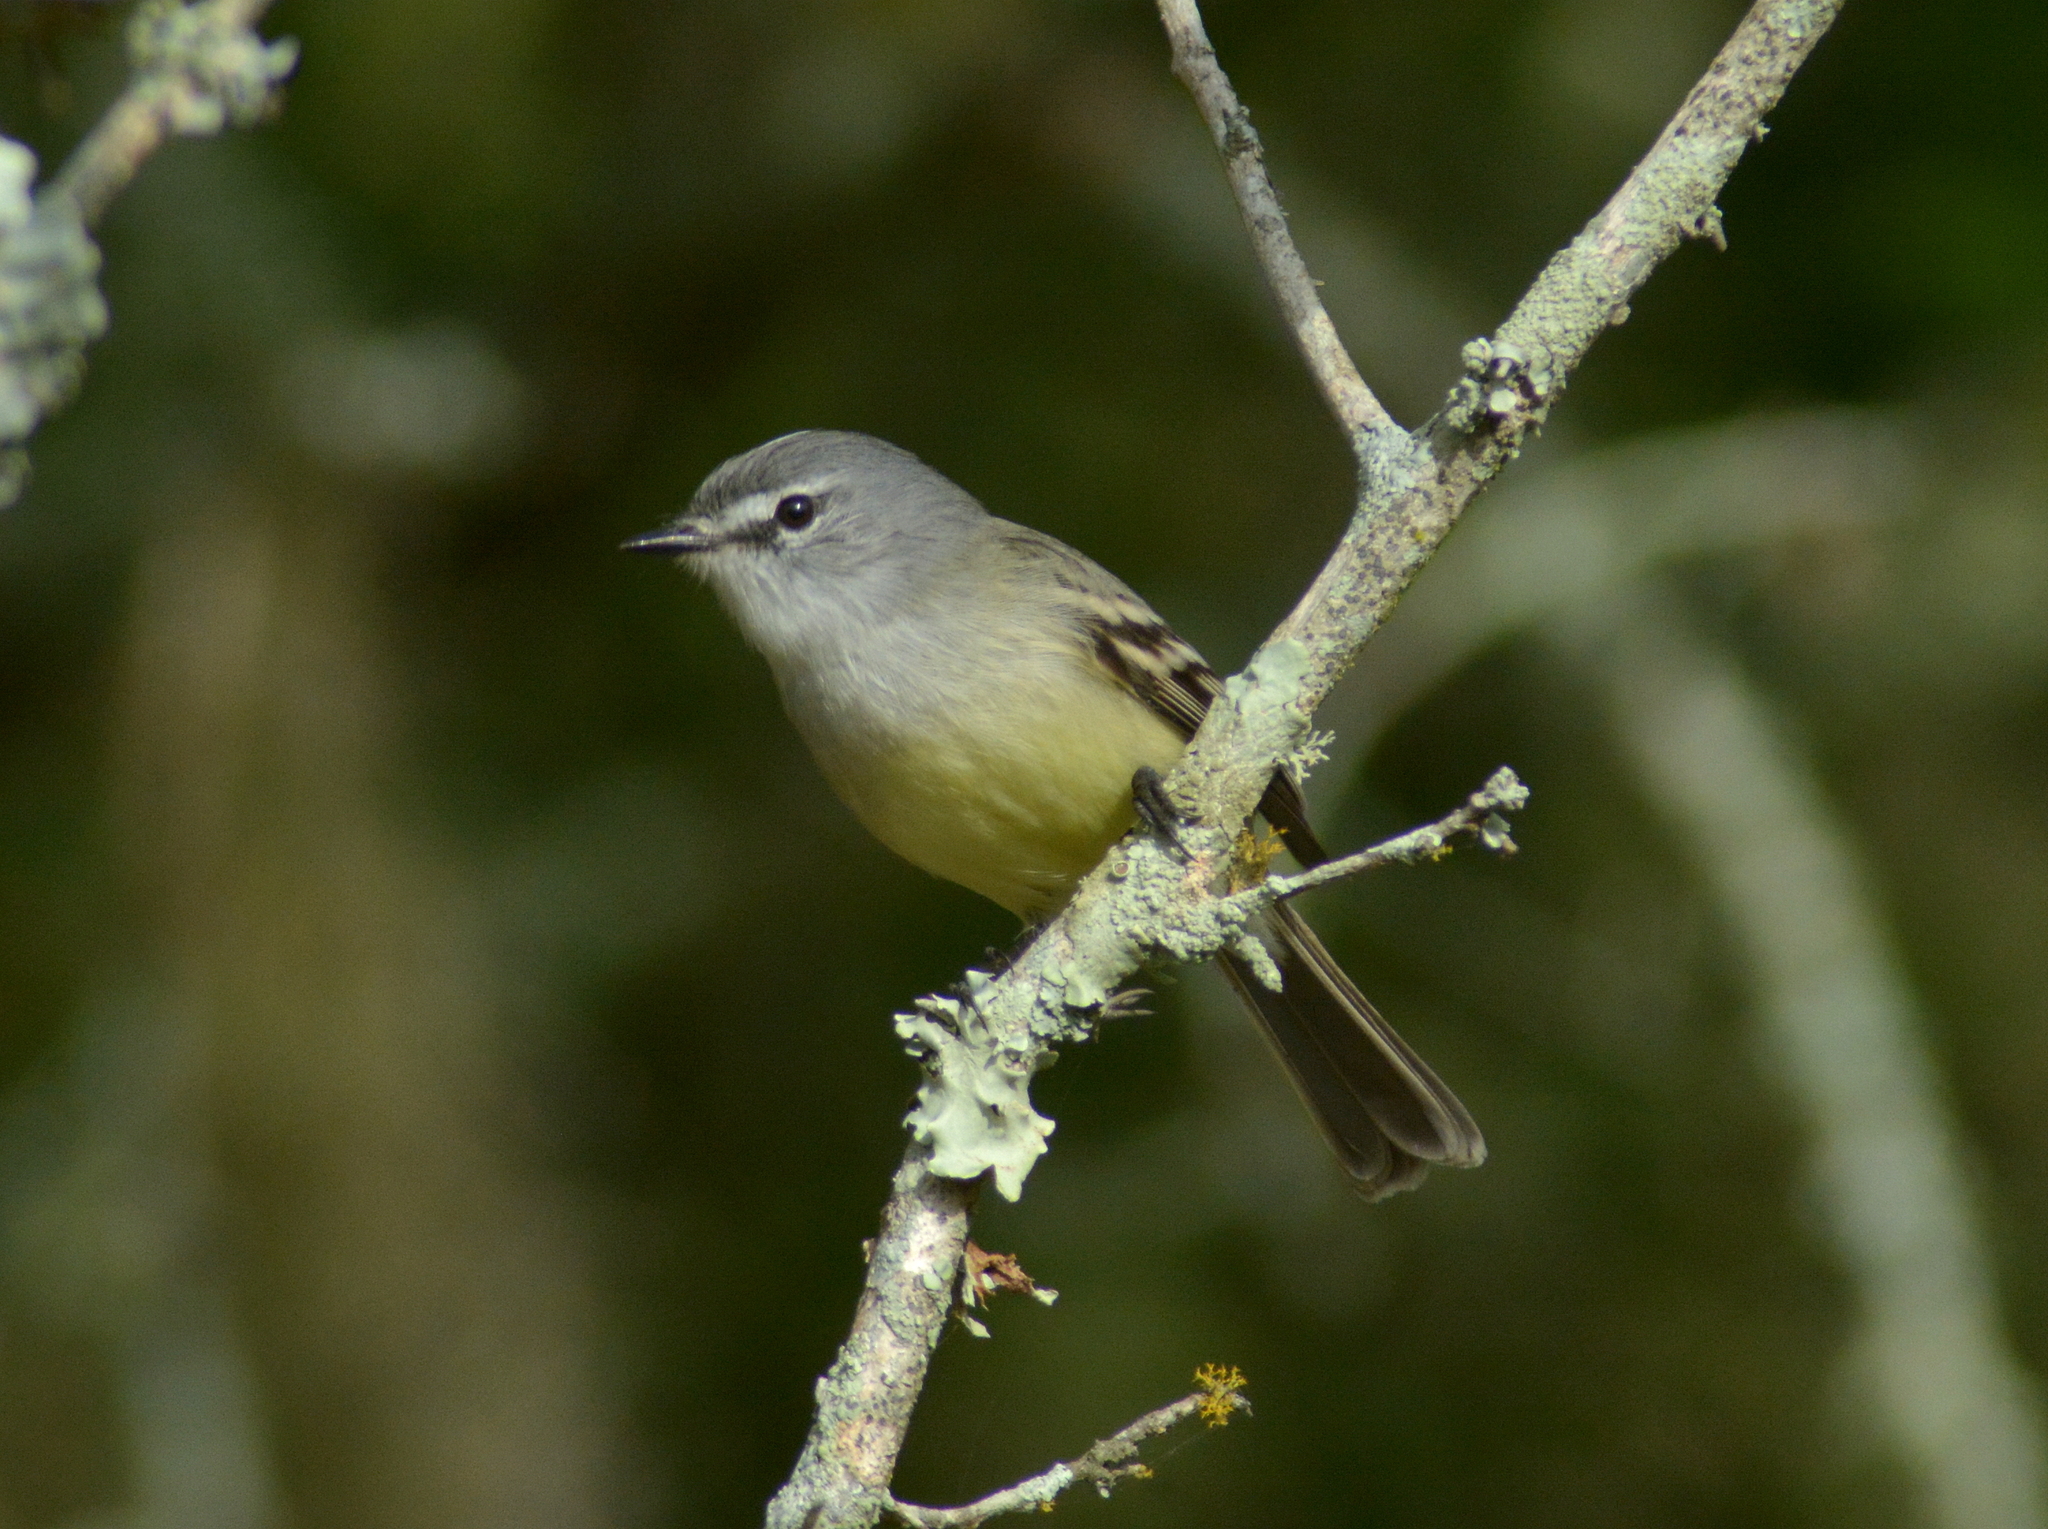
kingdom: Animalia
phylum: Chordata
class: Aves
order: Passeriformes
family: Tyrannidae
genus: Serpophaga
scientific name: Serpophaga subcristata
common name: White-crested tyrannulet
